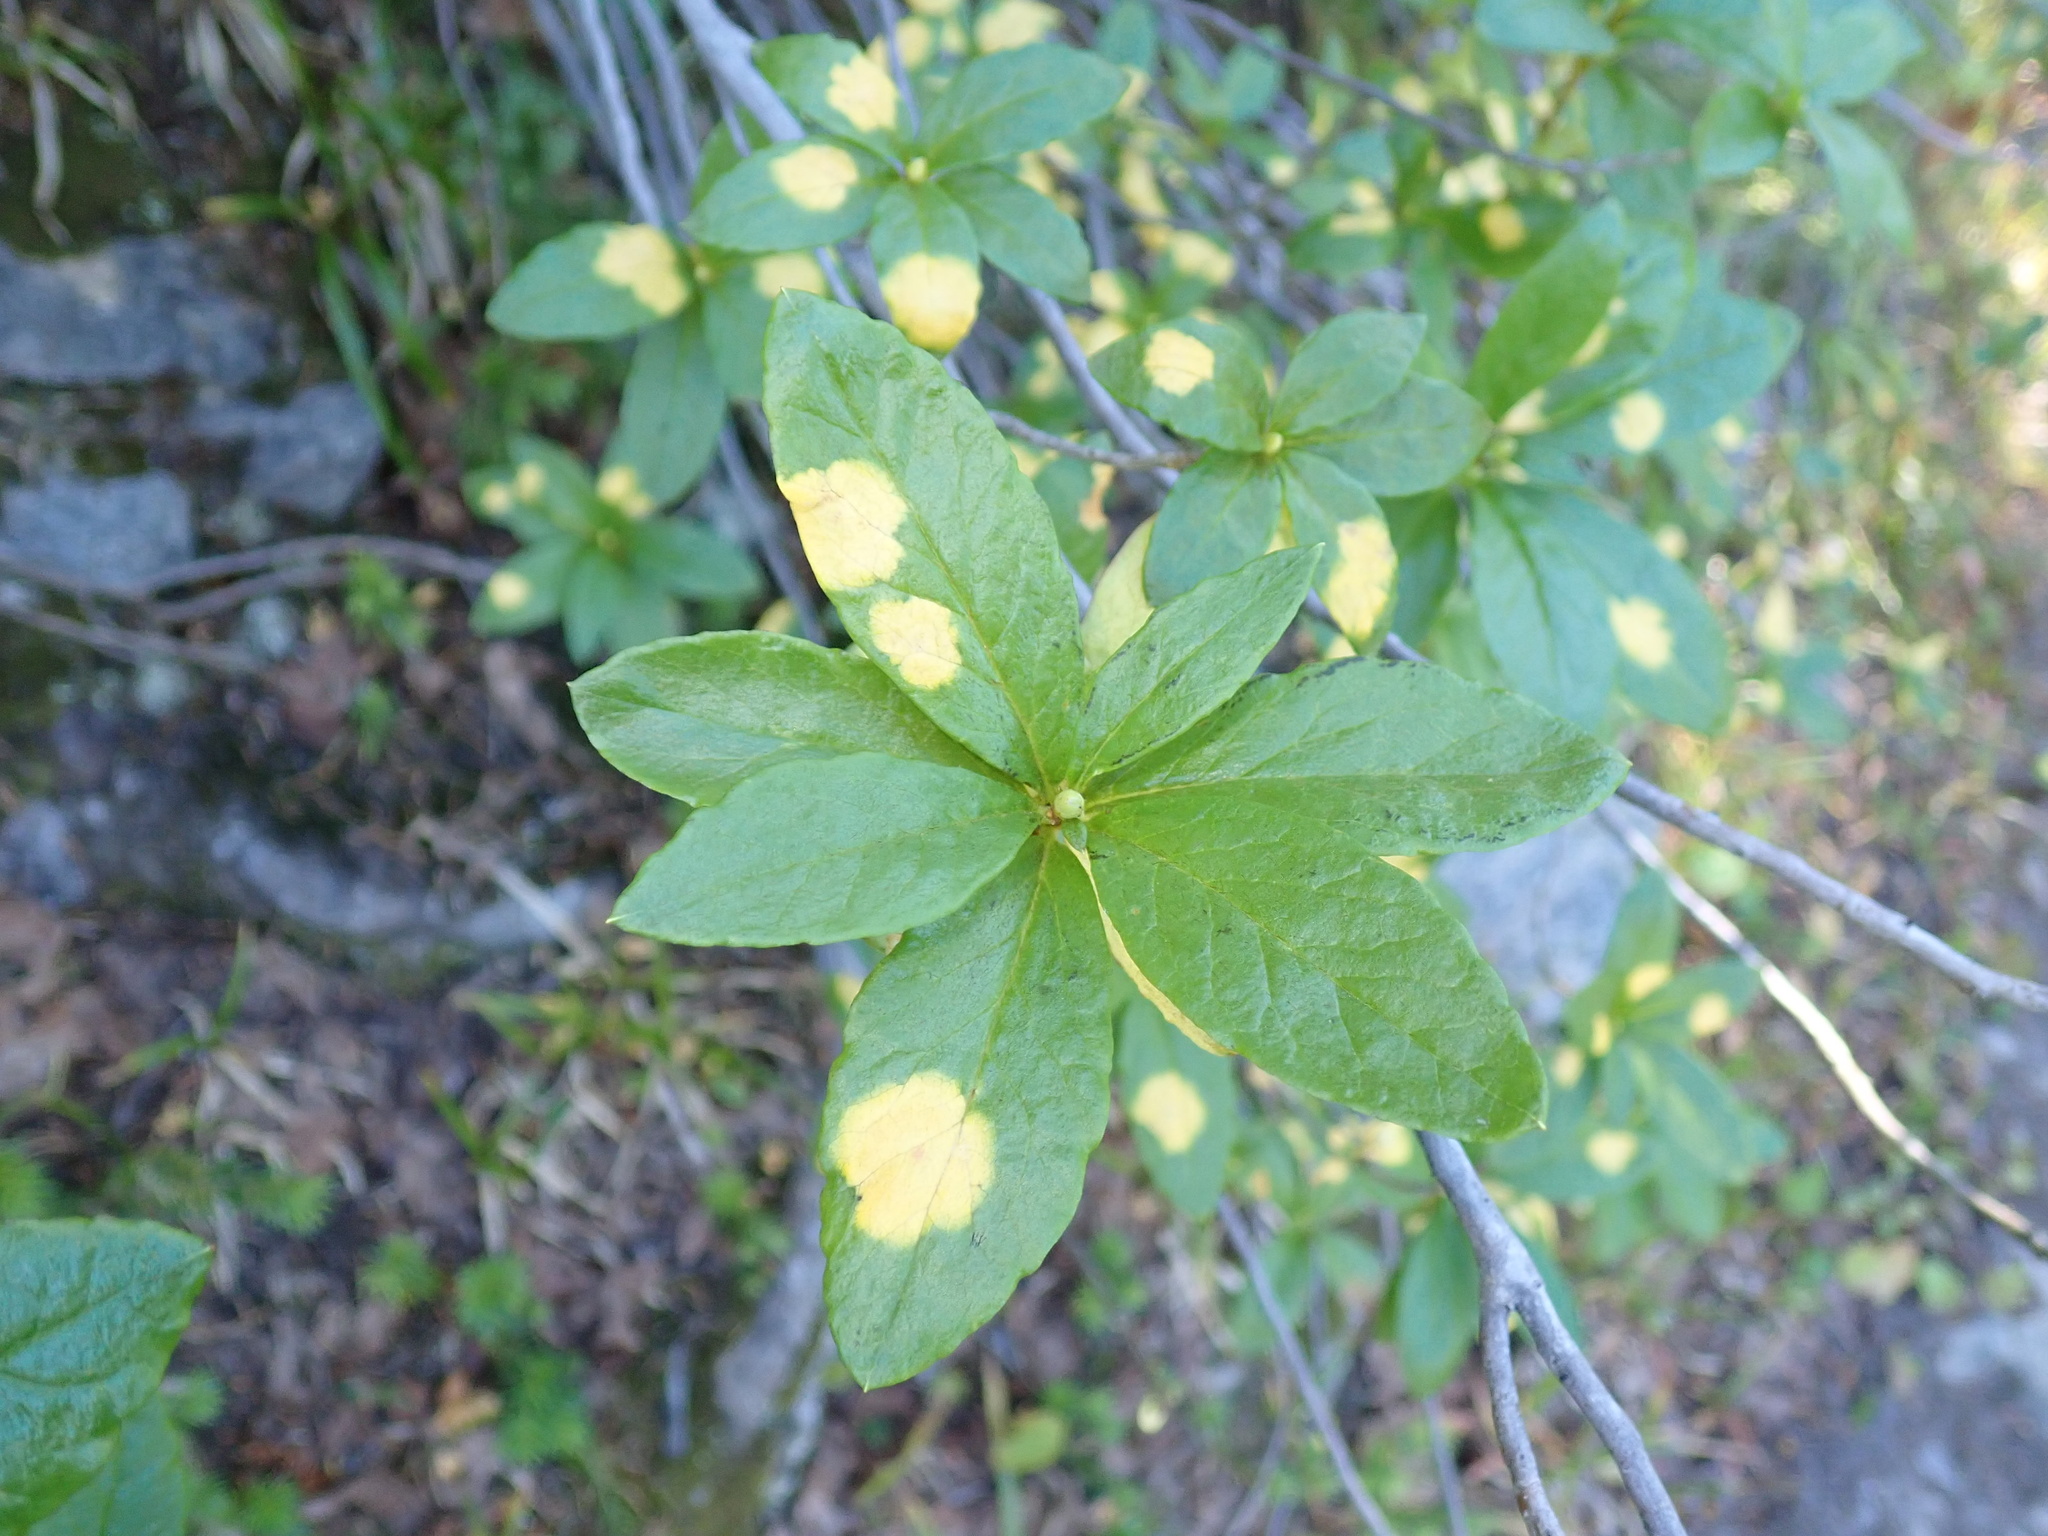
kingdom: Plantae
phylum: Tracheophyta
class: Magnoliopsida
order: Ericales
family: Ericaceae
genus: Rhododendron
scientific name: Rhododendron albiflorum
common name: White rhododendron
